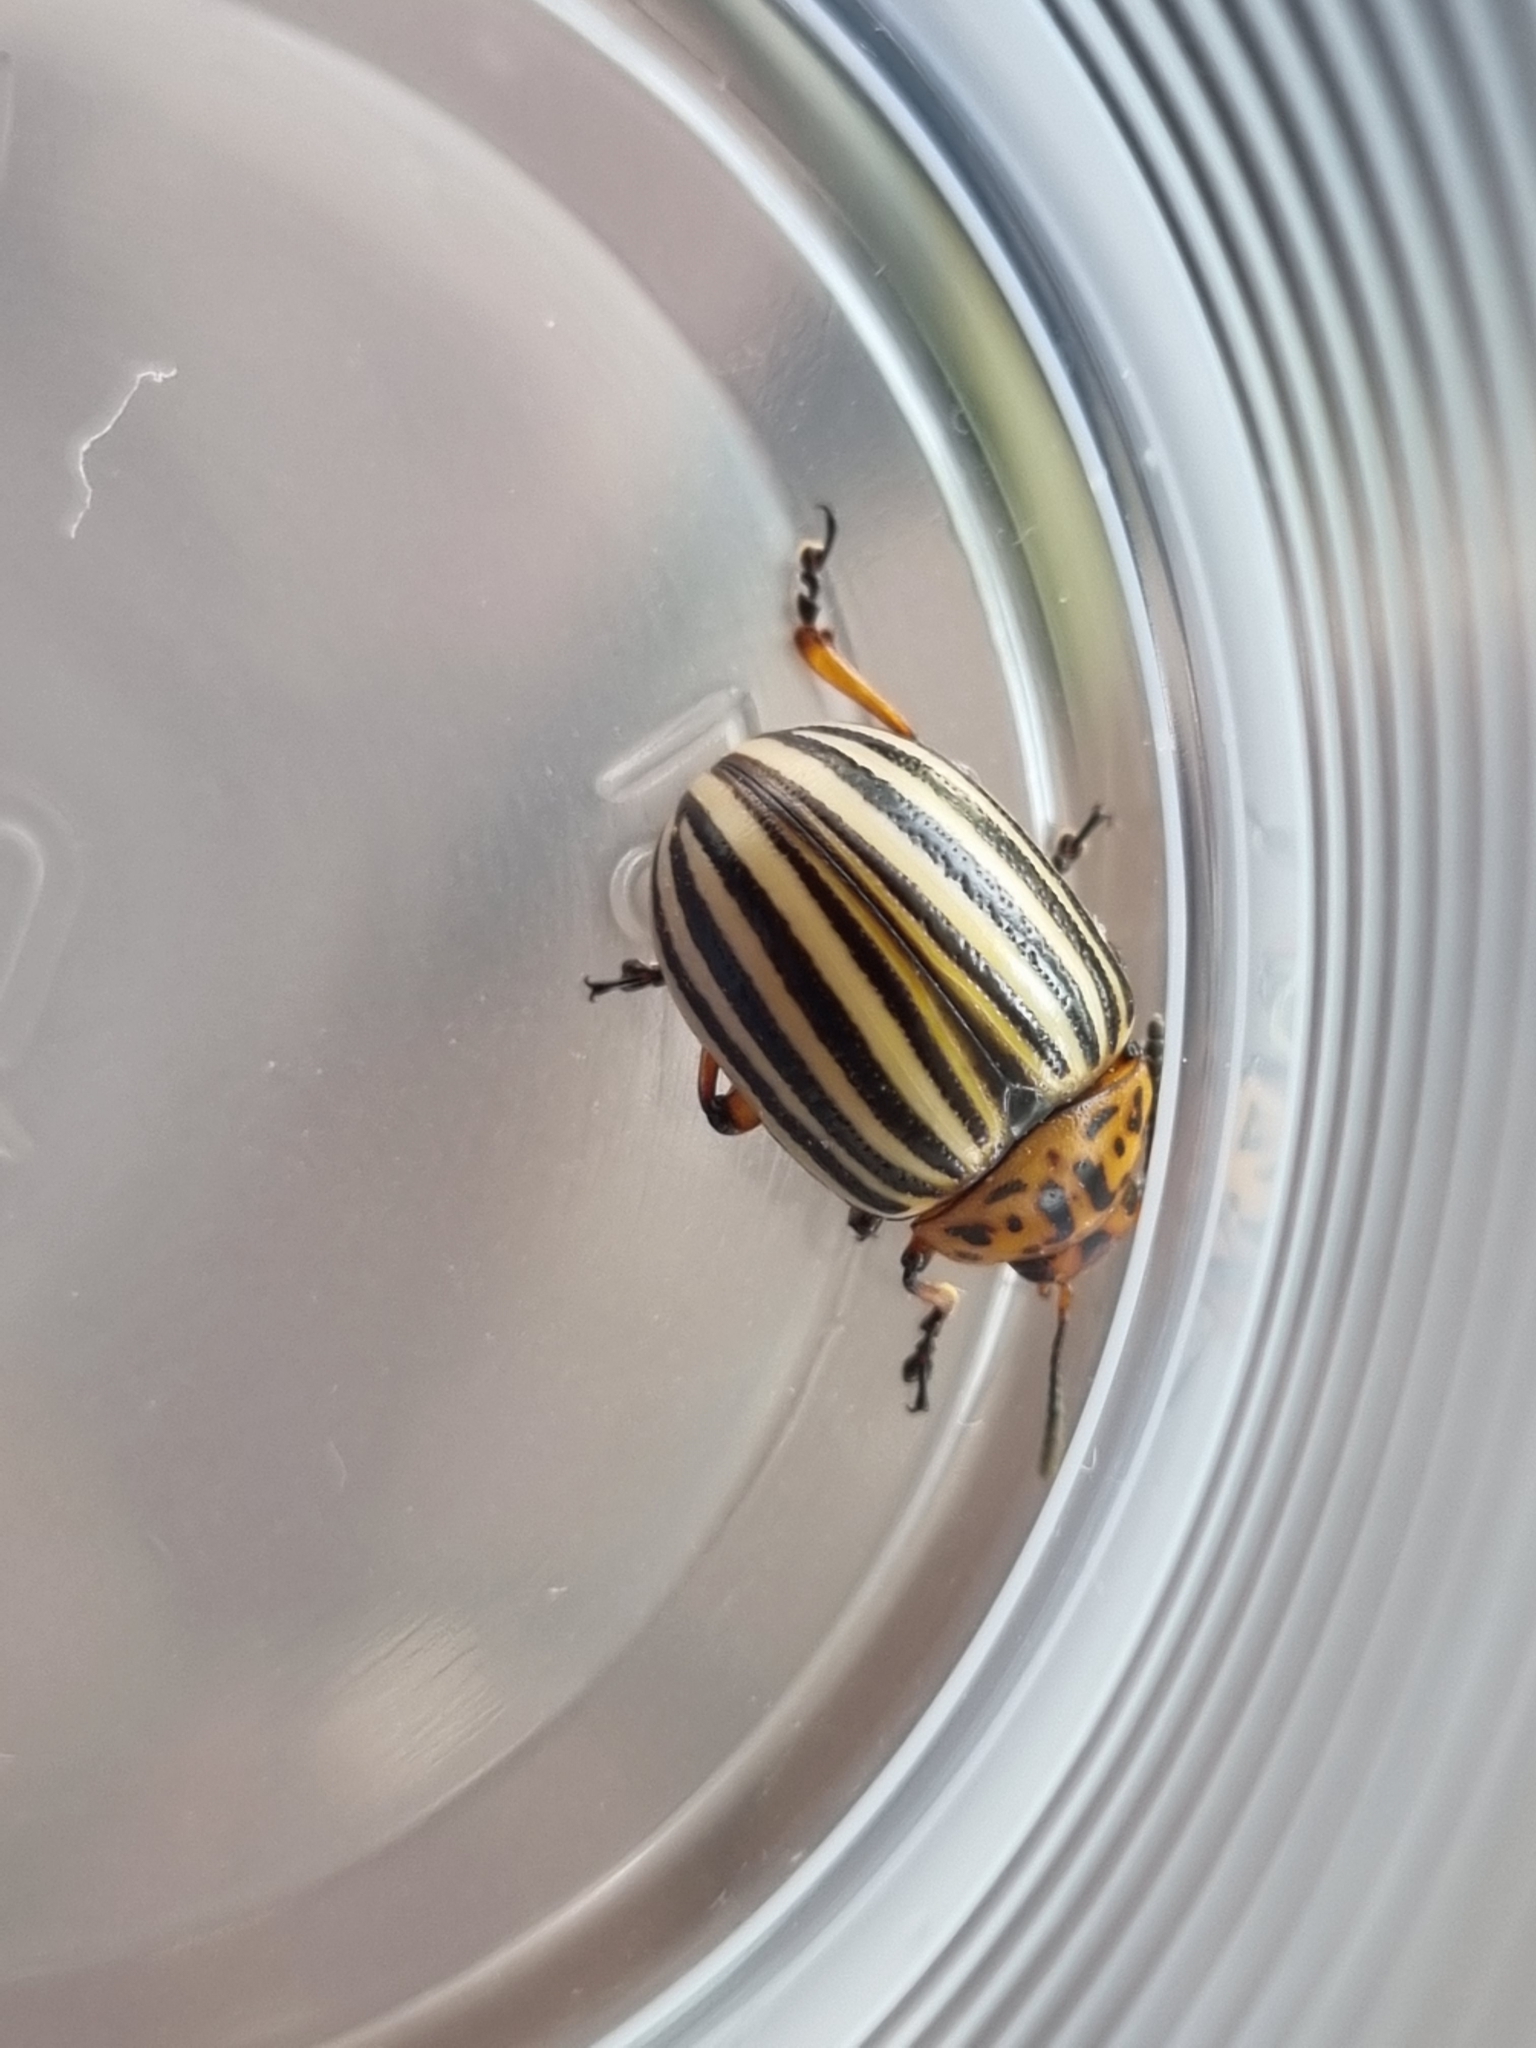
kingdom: Animalia
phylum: Arthropoda
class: Insecta
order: Coleoptera
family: Chrysomelidae
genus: Leptinotarsa
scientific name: Leptinotarsa decemlineata
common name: Colorado potato beetle
